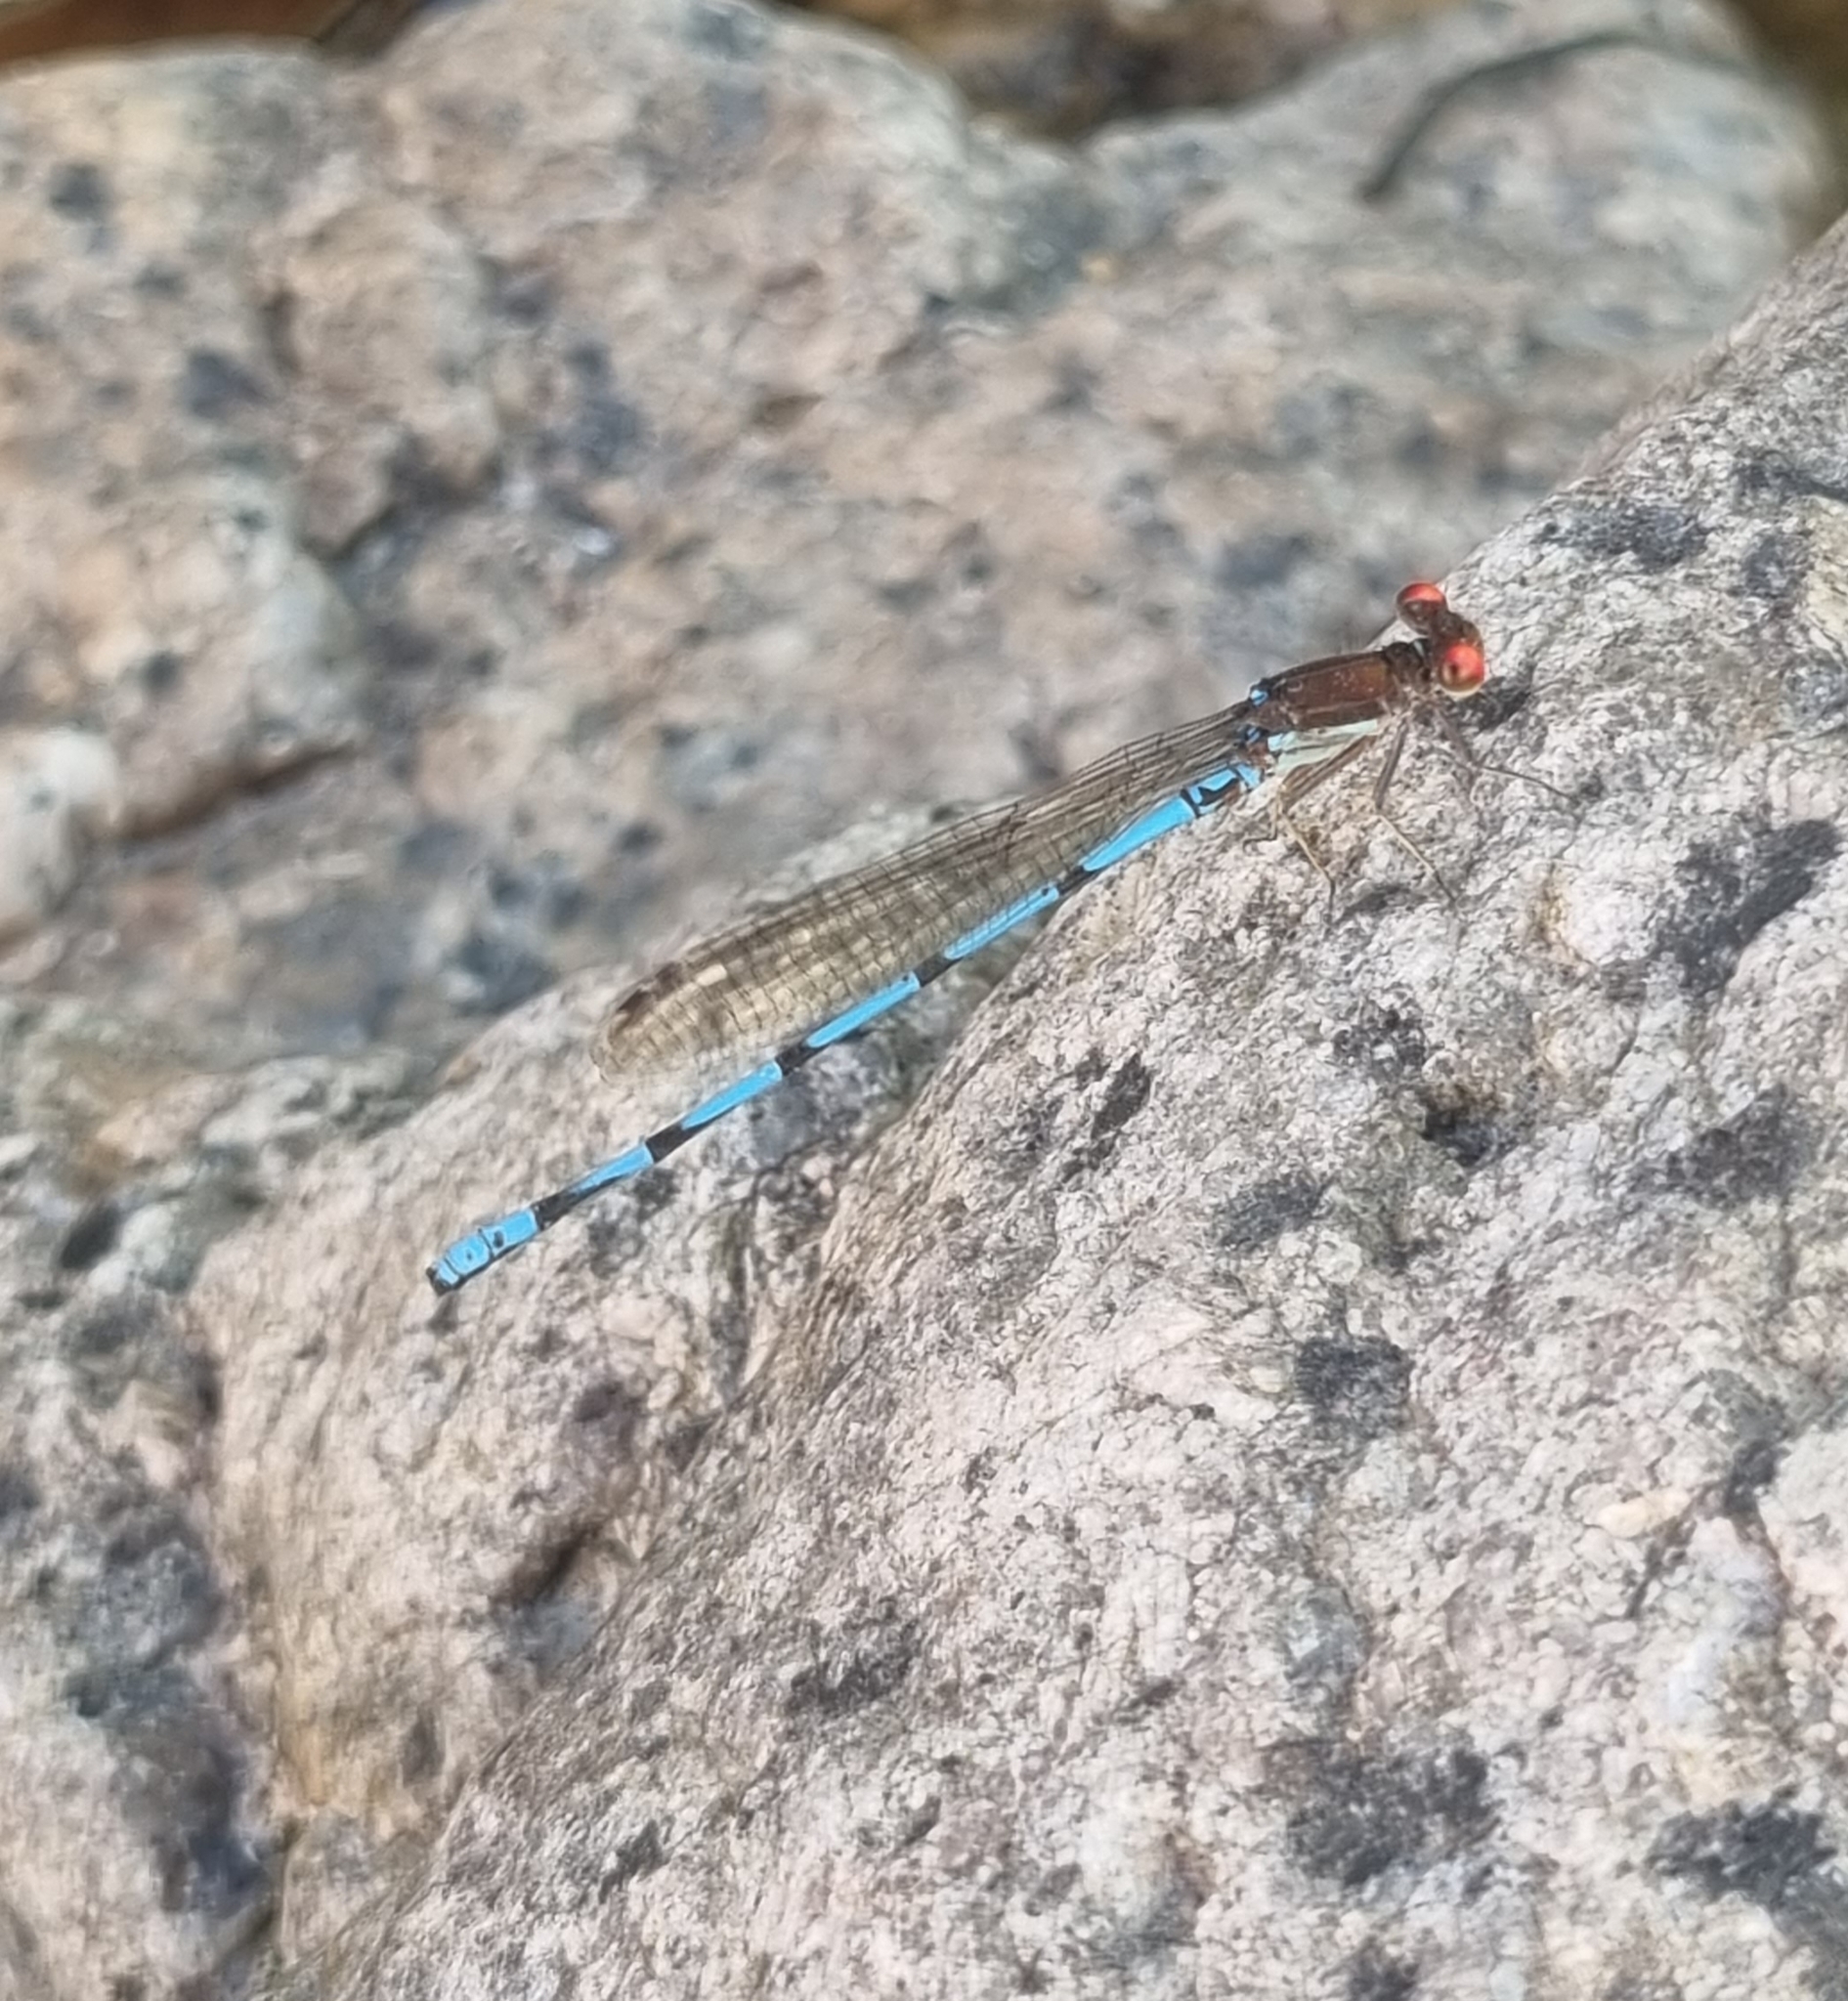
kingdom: Animalia
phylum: Arthropoda
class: Insecta
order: Odonata
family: Coenagrionidae
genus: Argia
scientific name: Argia joergenseni
